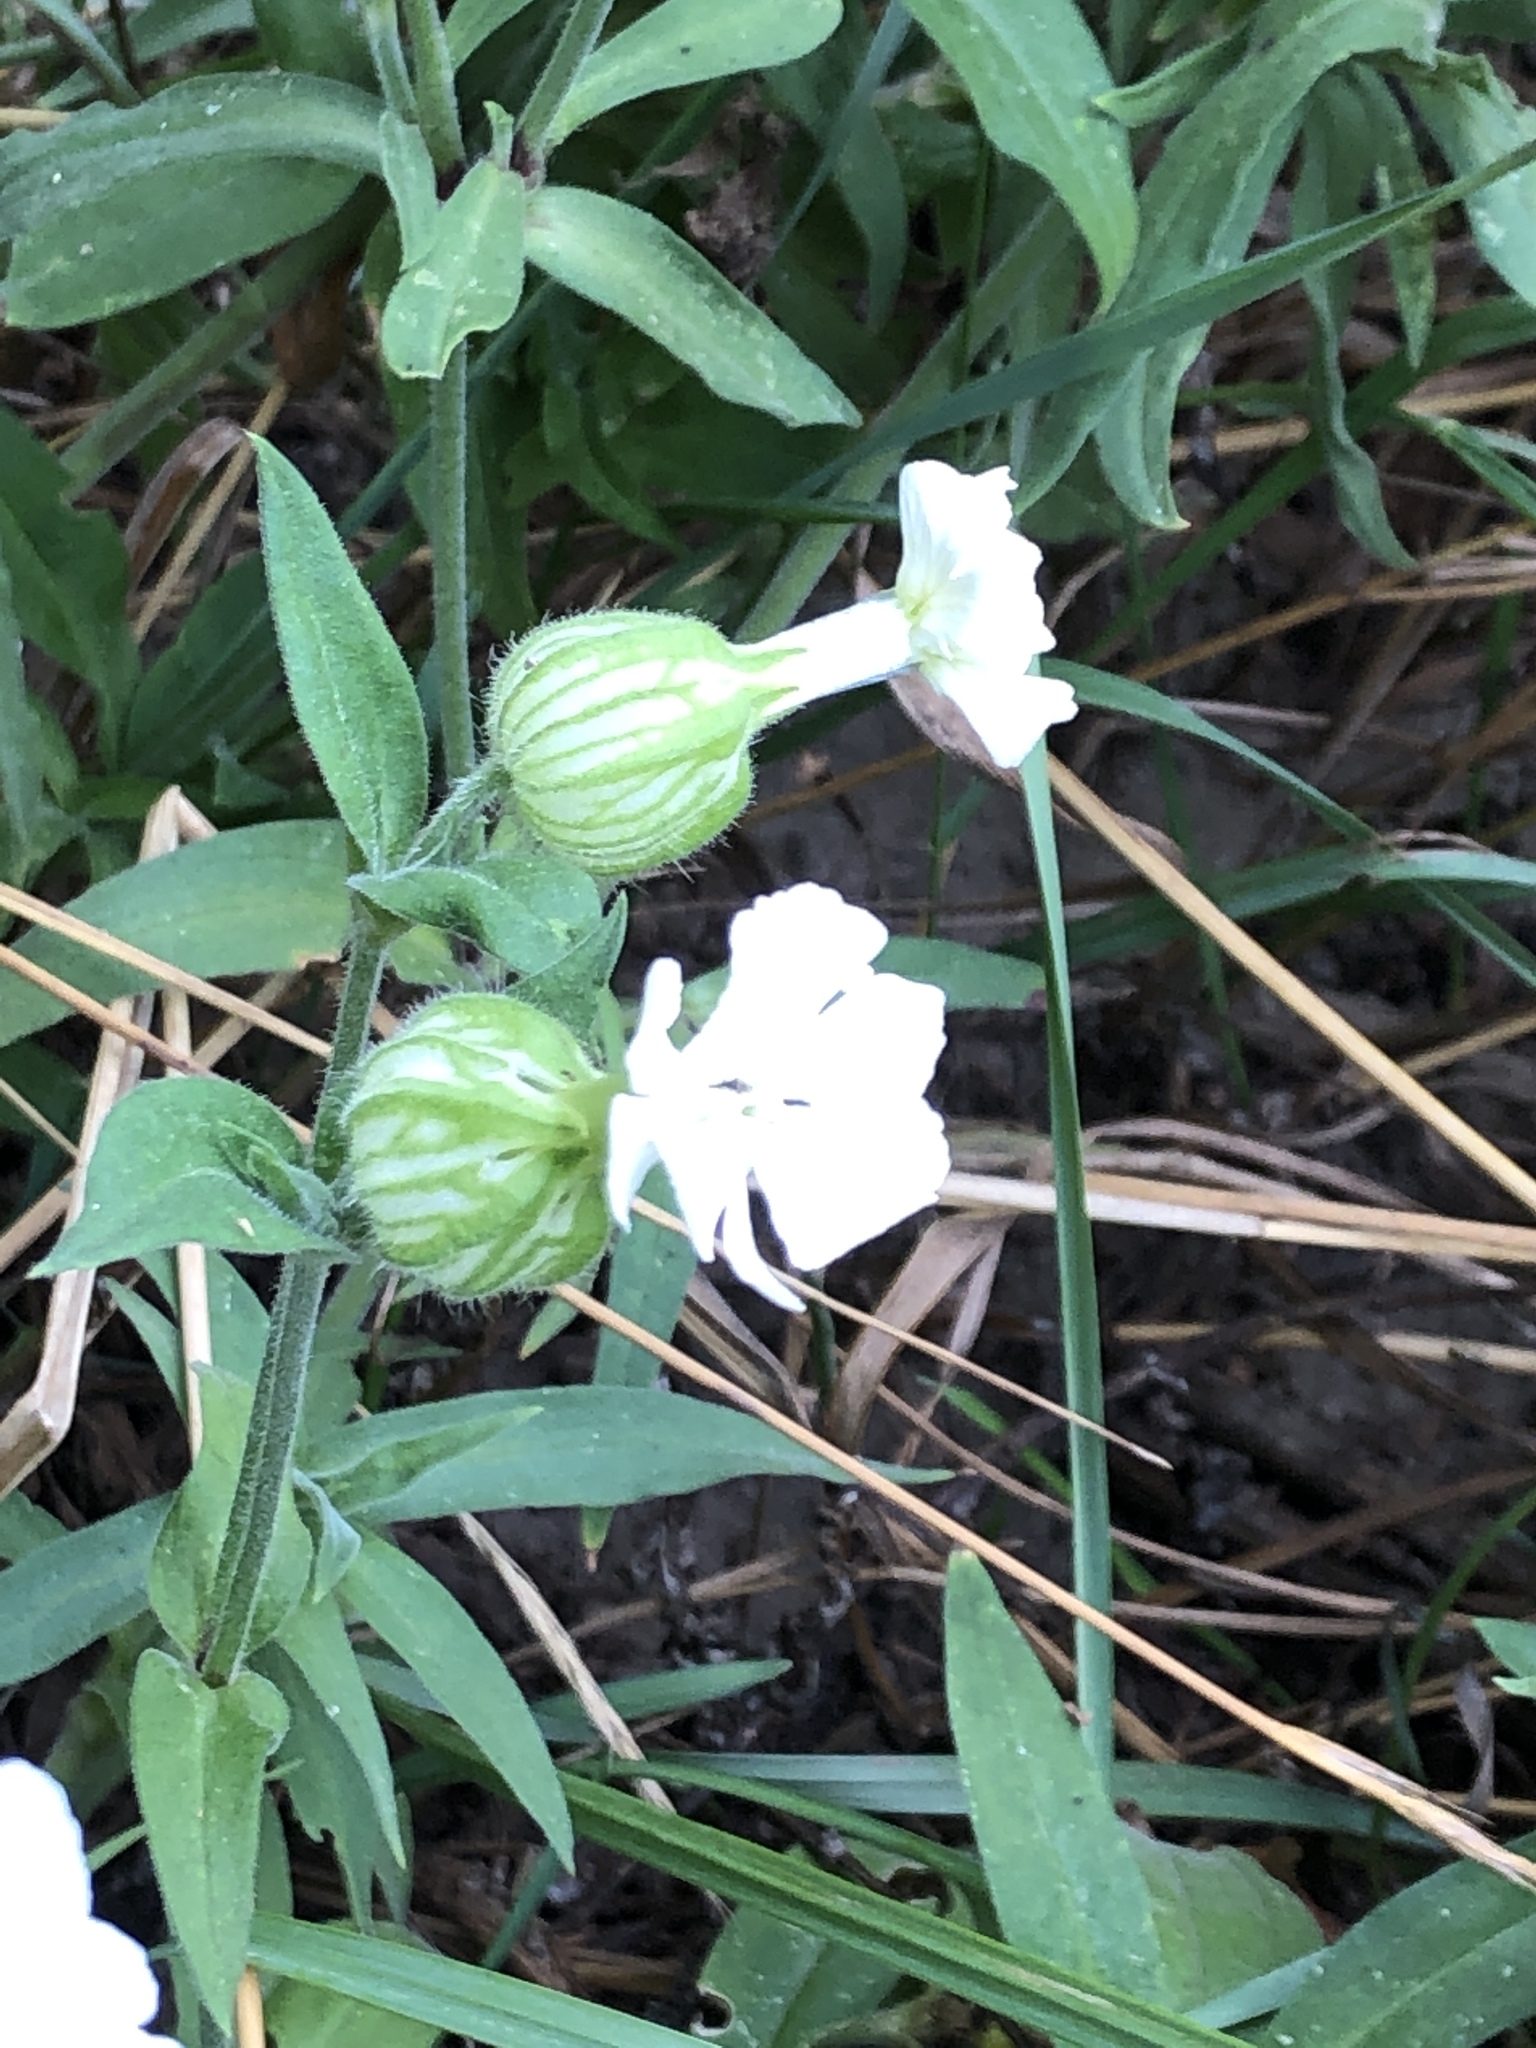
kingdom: Plantae
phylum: Tracheophyta
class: Magnoliopsida
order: Caryophyllales
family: Caryophyllaceae
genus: Silene
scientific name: Silene latifolia
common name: White campion
